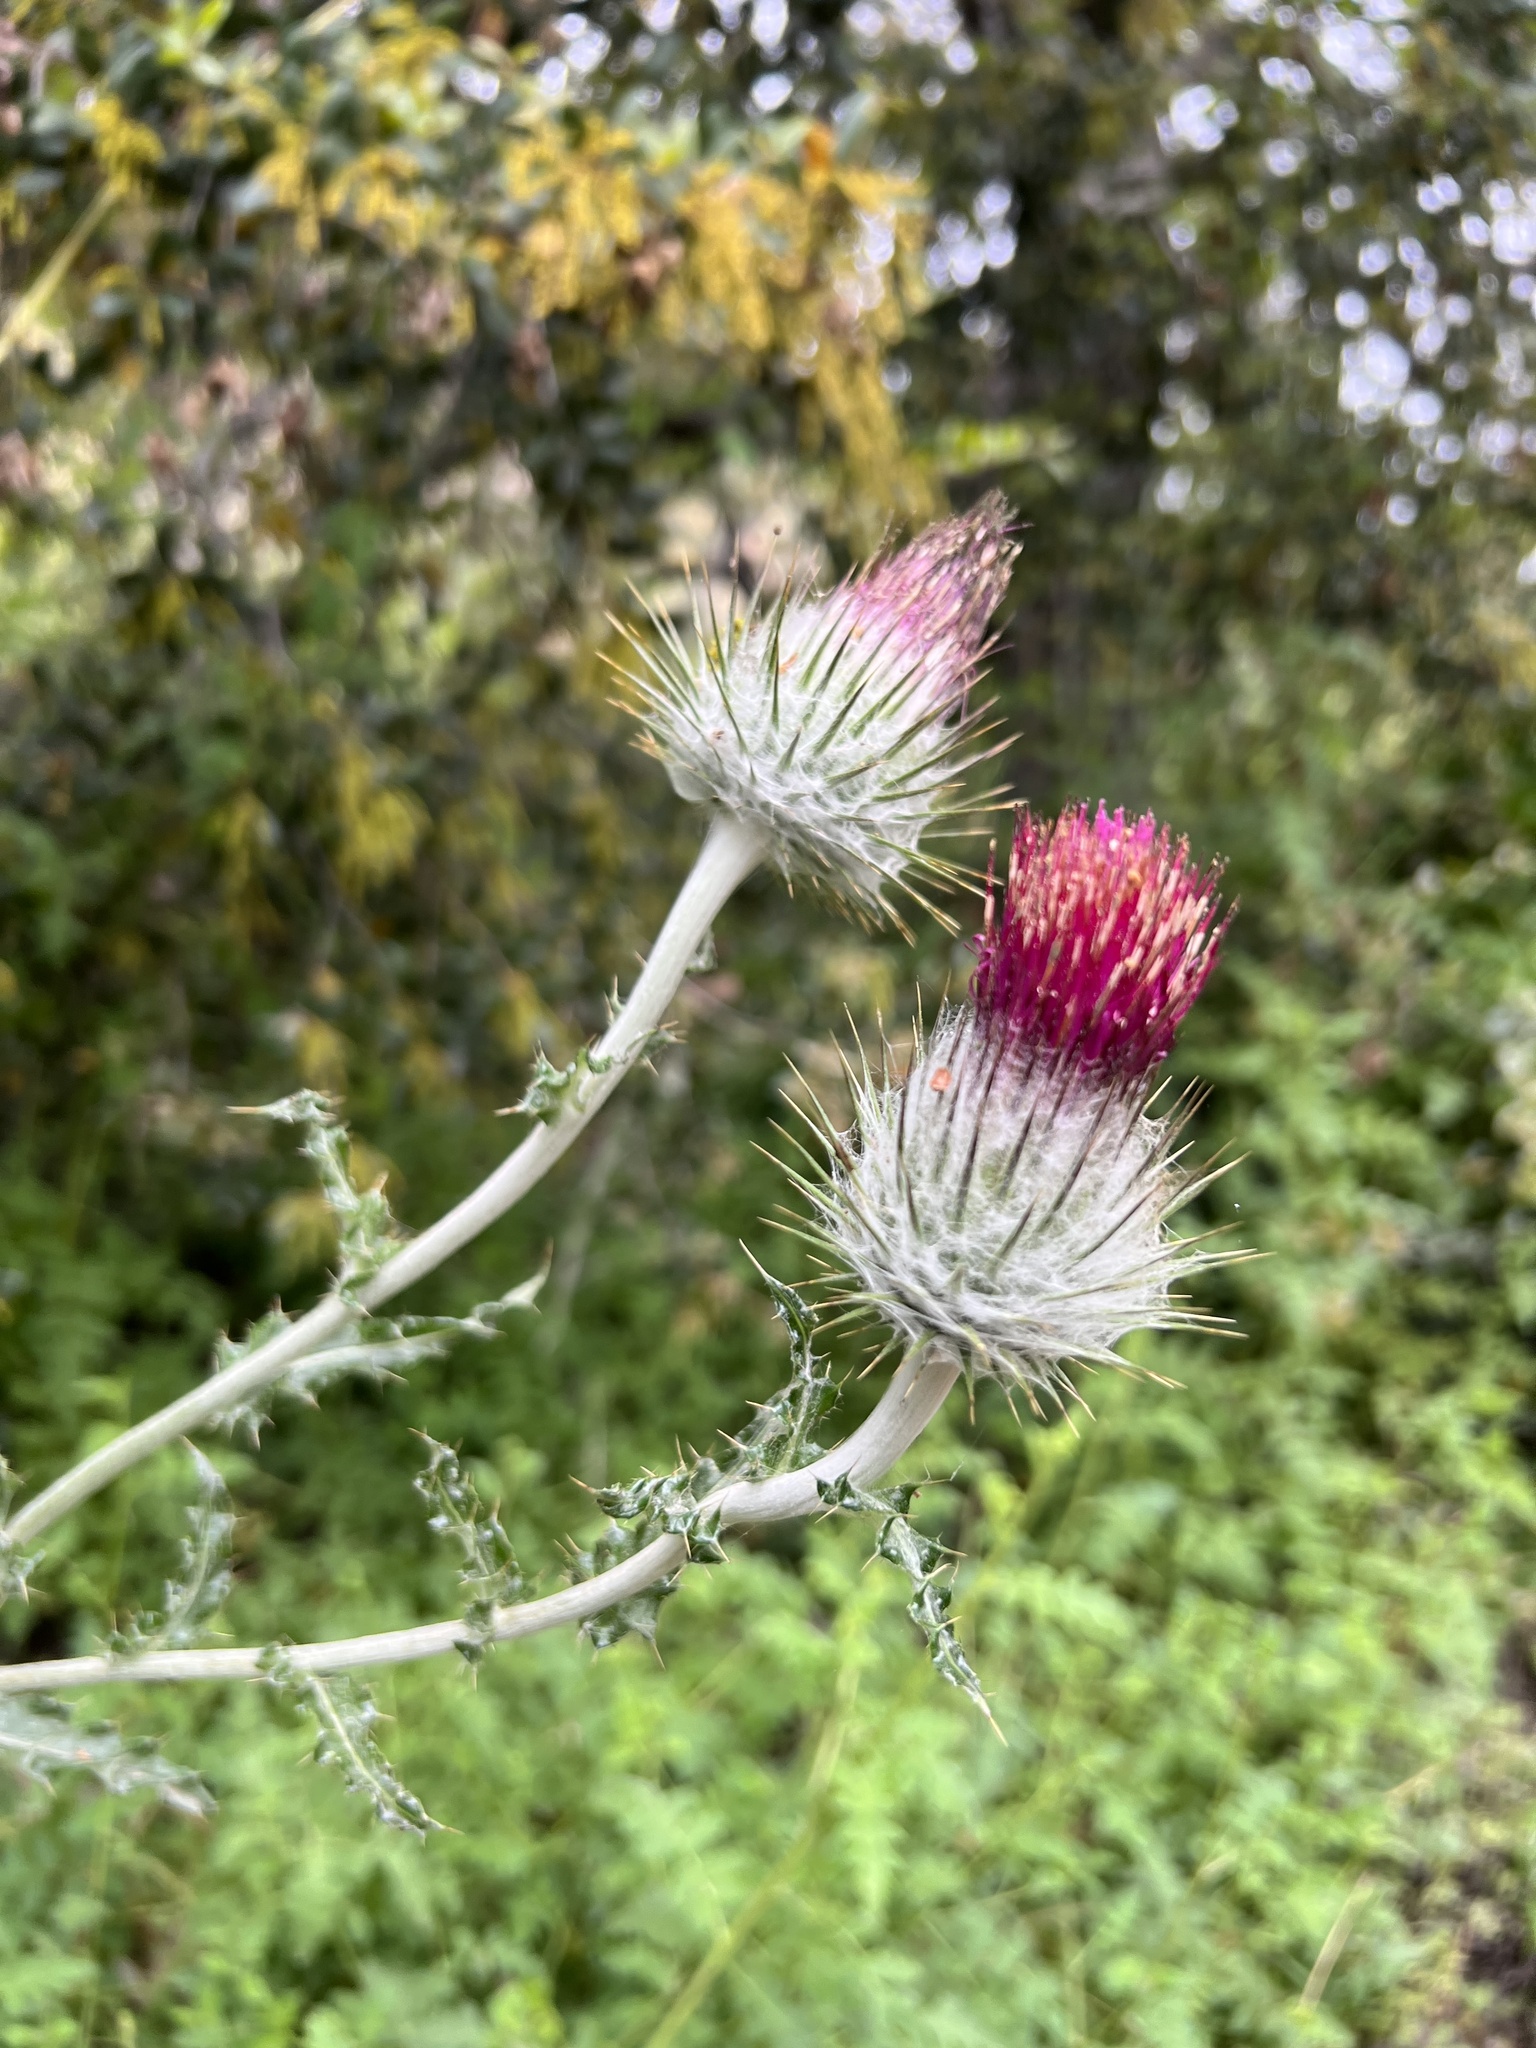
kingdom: Plantae
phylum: Tracheophyta
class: Magnoliopsida
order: Asterales
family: Asteraceae
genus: Cirsium
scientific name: Cirsium occidentale
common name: Western thistle
